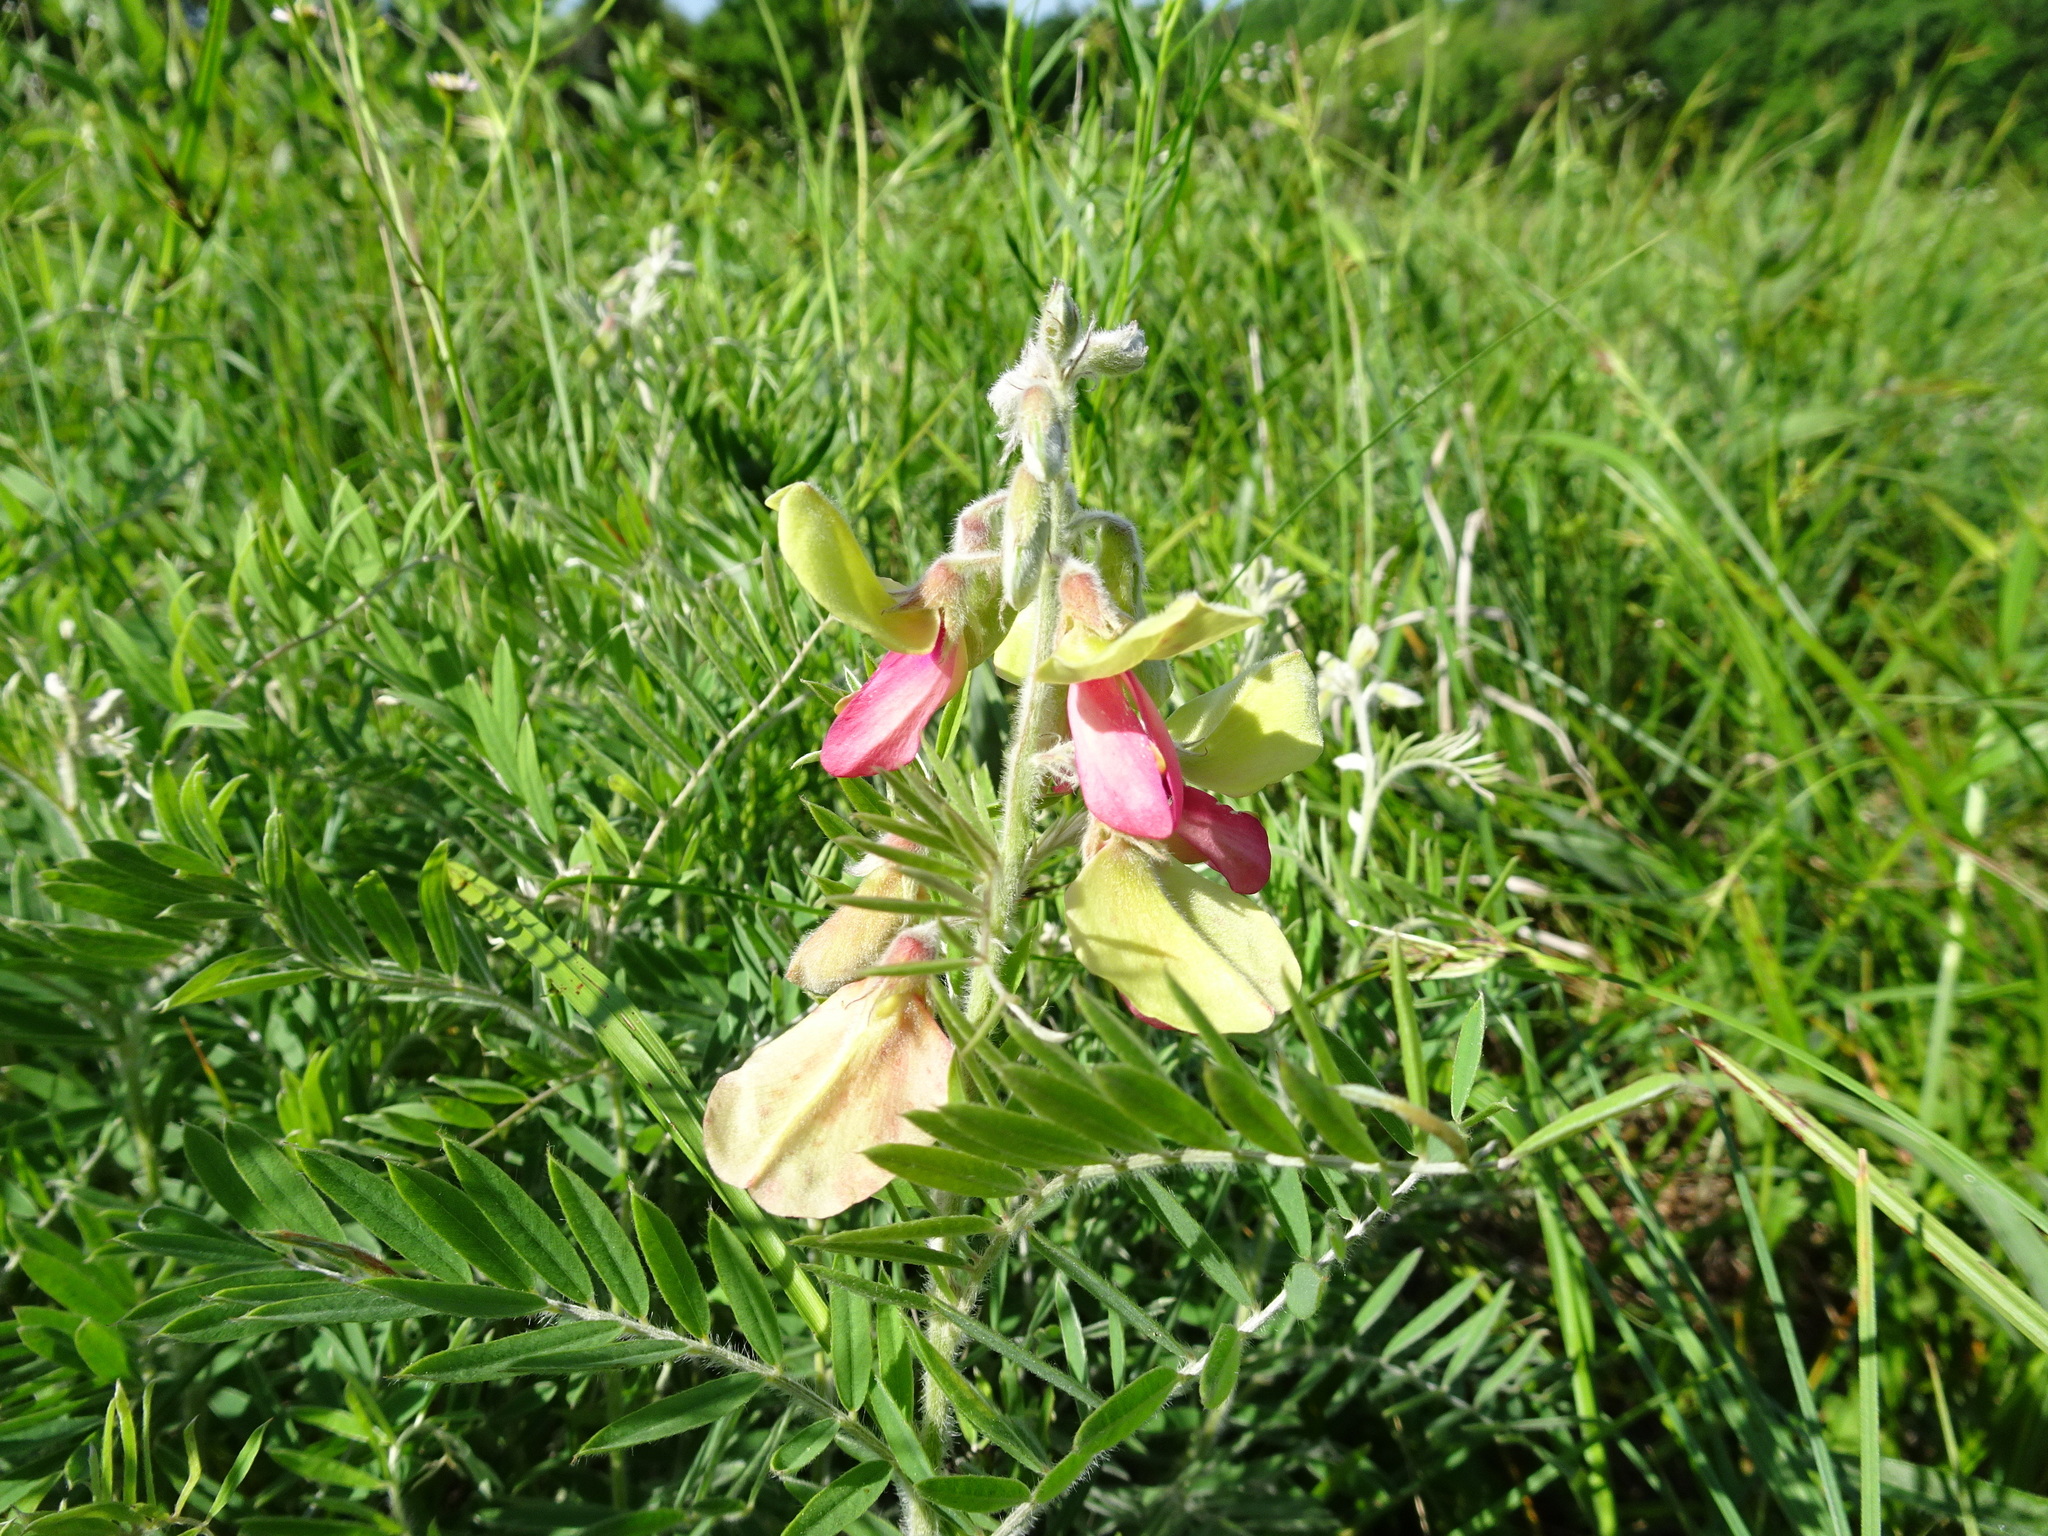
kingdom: Plantae
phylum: Tracheophyta
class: Magnoliopsida
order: Fabales
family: Fabaceae
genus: Tephrosia
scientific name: Tephrosia virginiana
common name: Rabbit-pea
